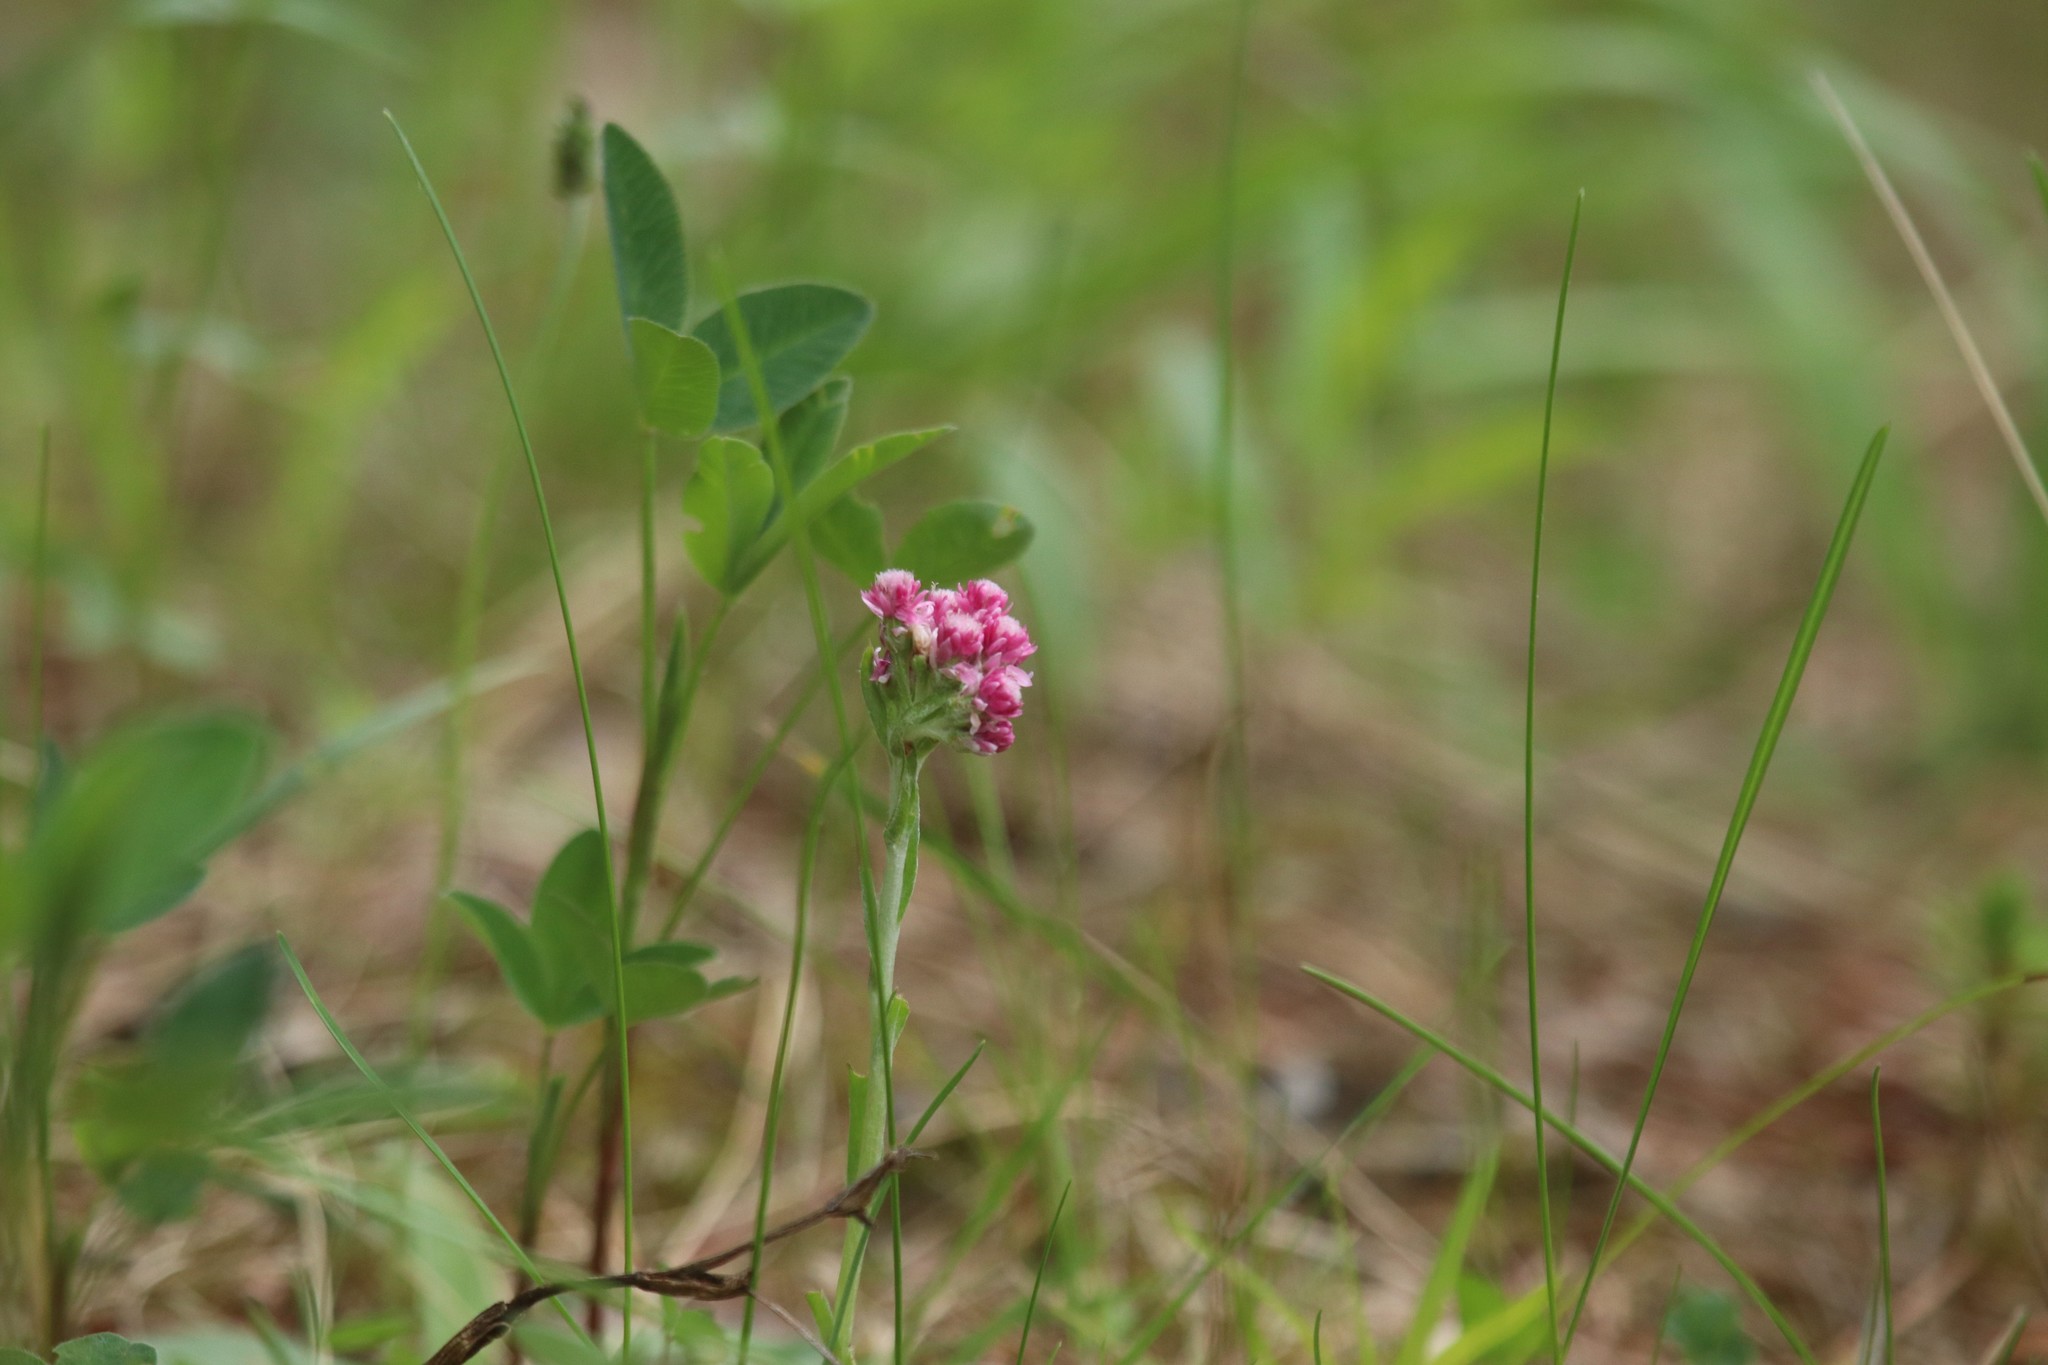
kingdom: Plantae
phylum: Tracheophyta
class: Magnoliopsida
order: Asterales
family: Asteraceae
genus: Antennaria
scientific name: Antennaria dioica
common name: Mountain everlasting
